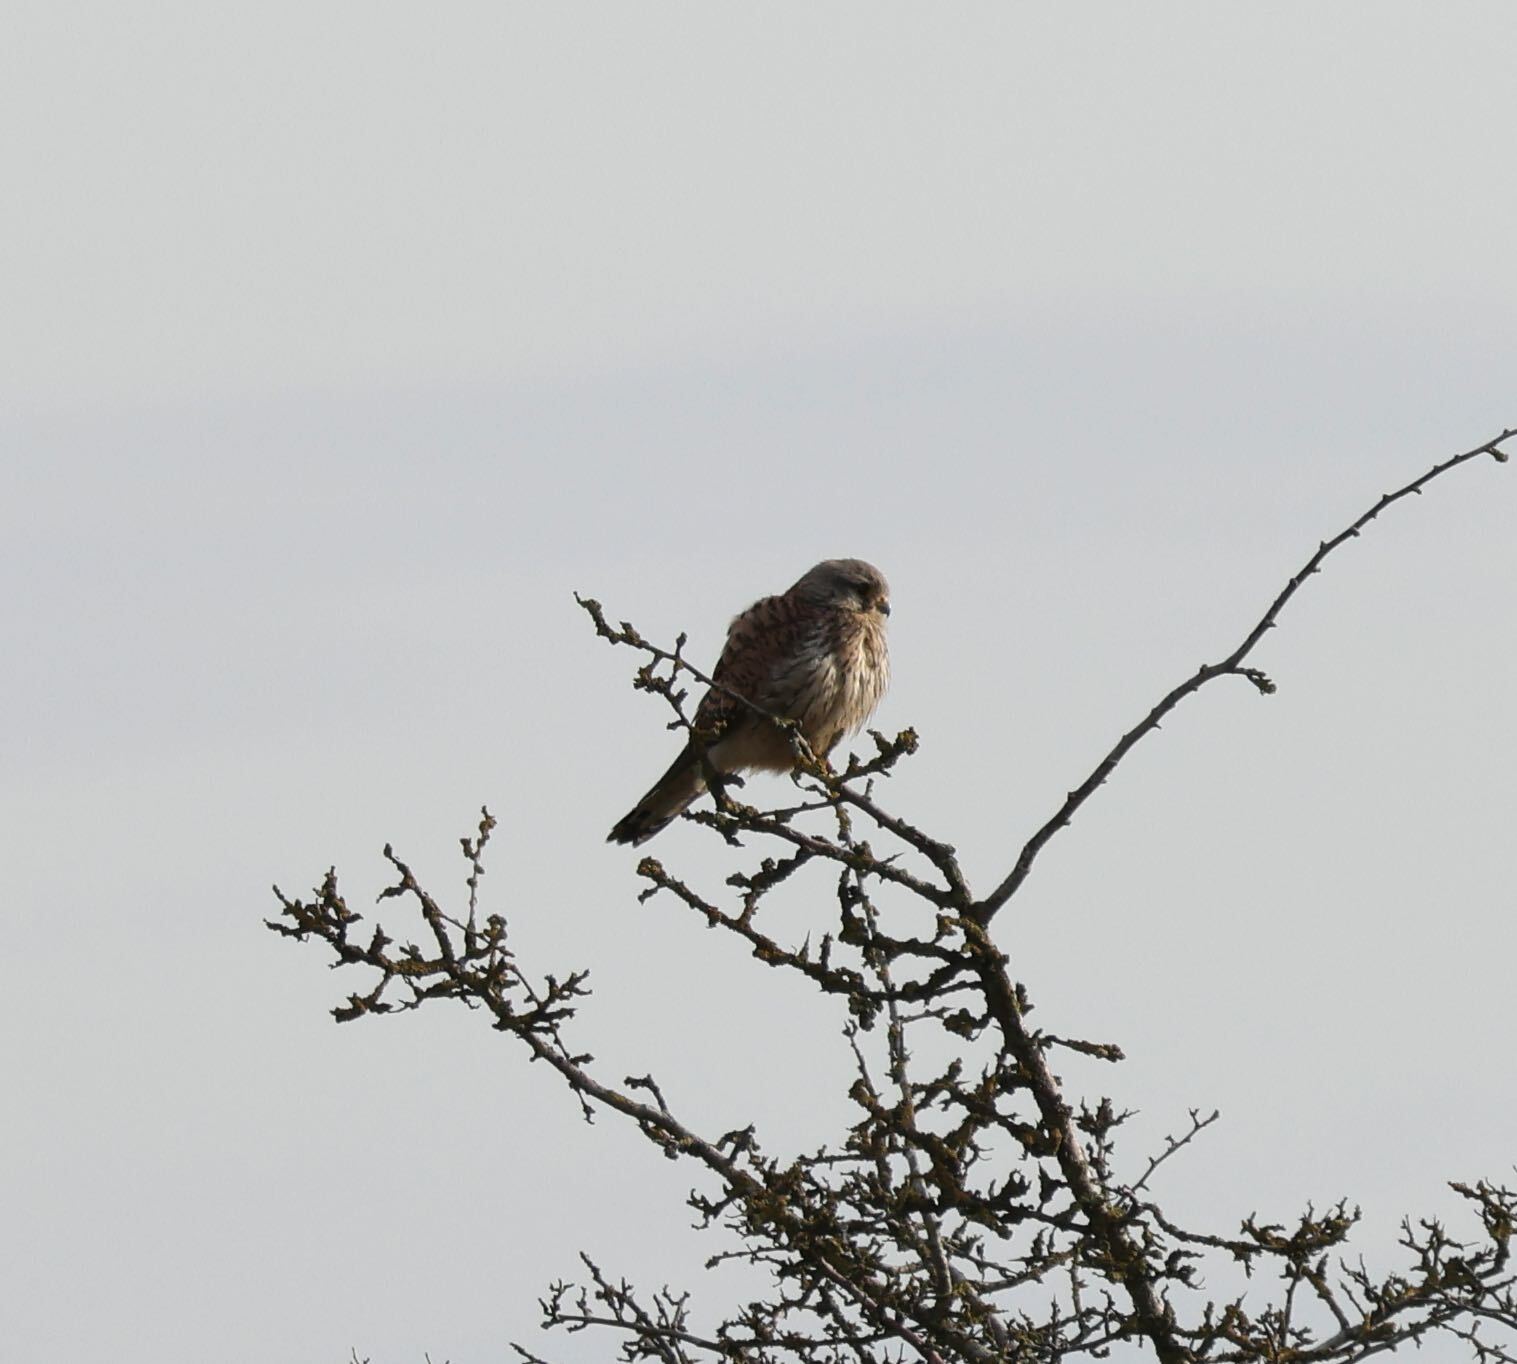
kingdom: Animalia
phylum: Chordata
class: Aves
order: Falconiformes
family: Falconidae
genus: Falco
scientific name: Falco tinnunculus
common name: Common kestrel
